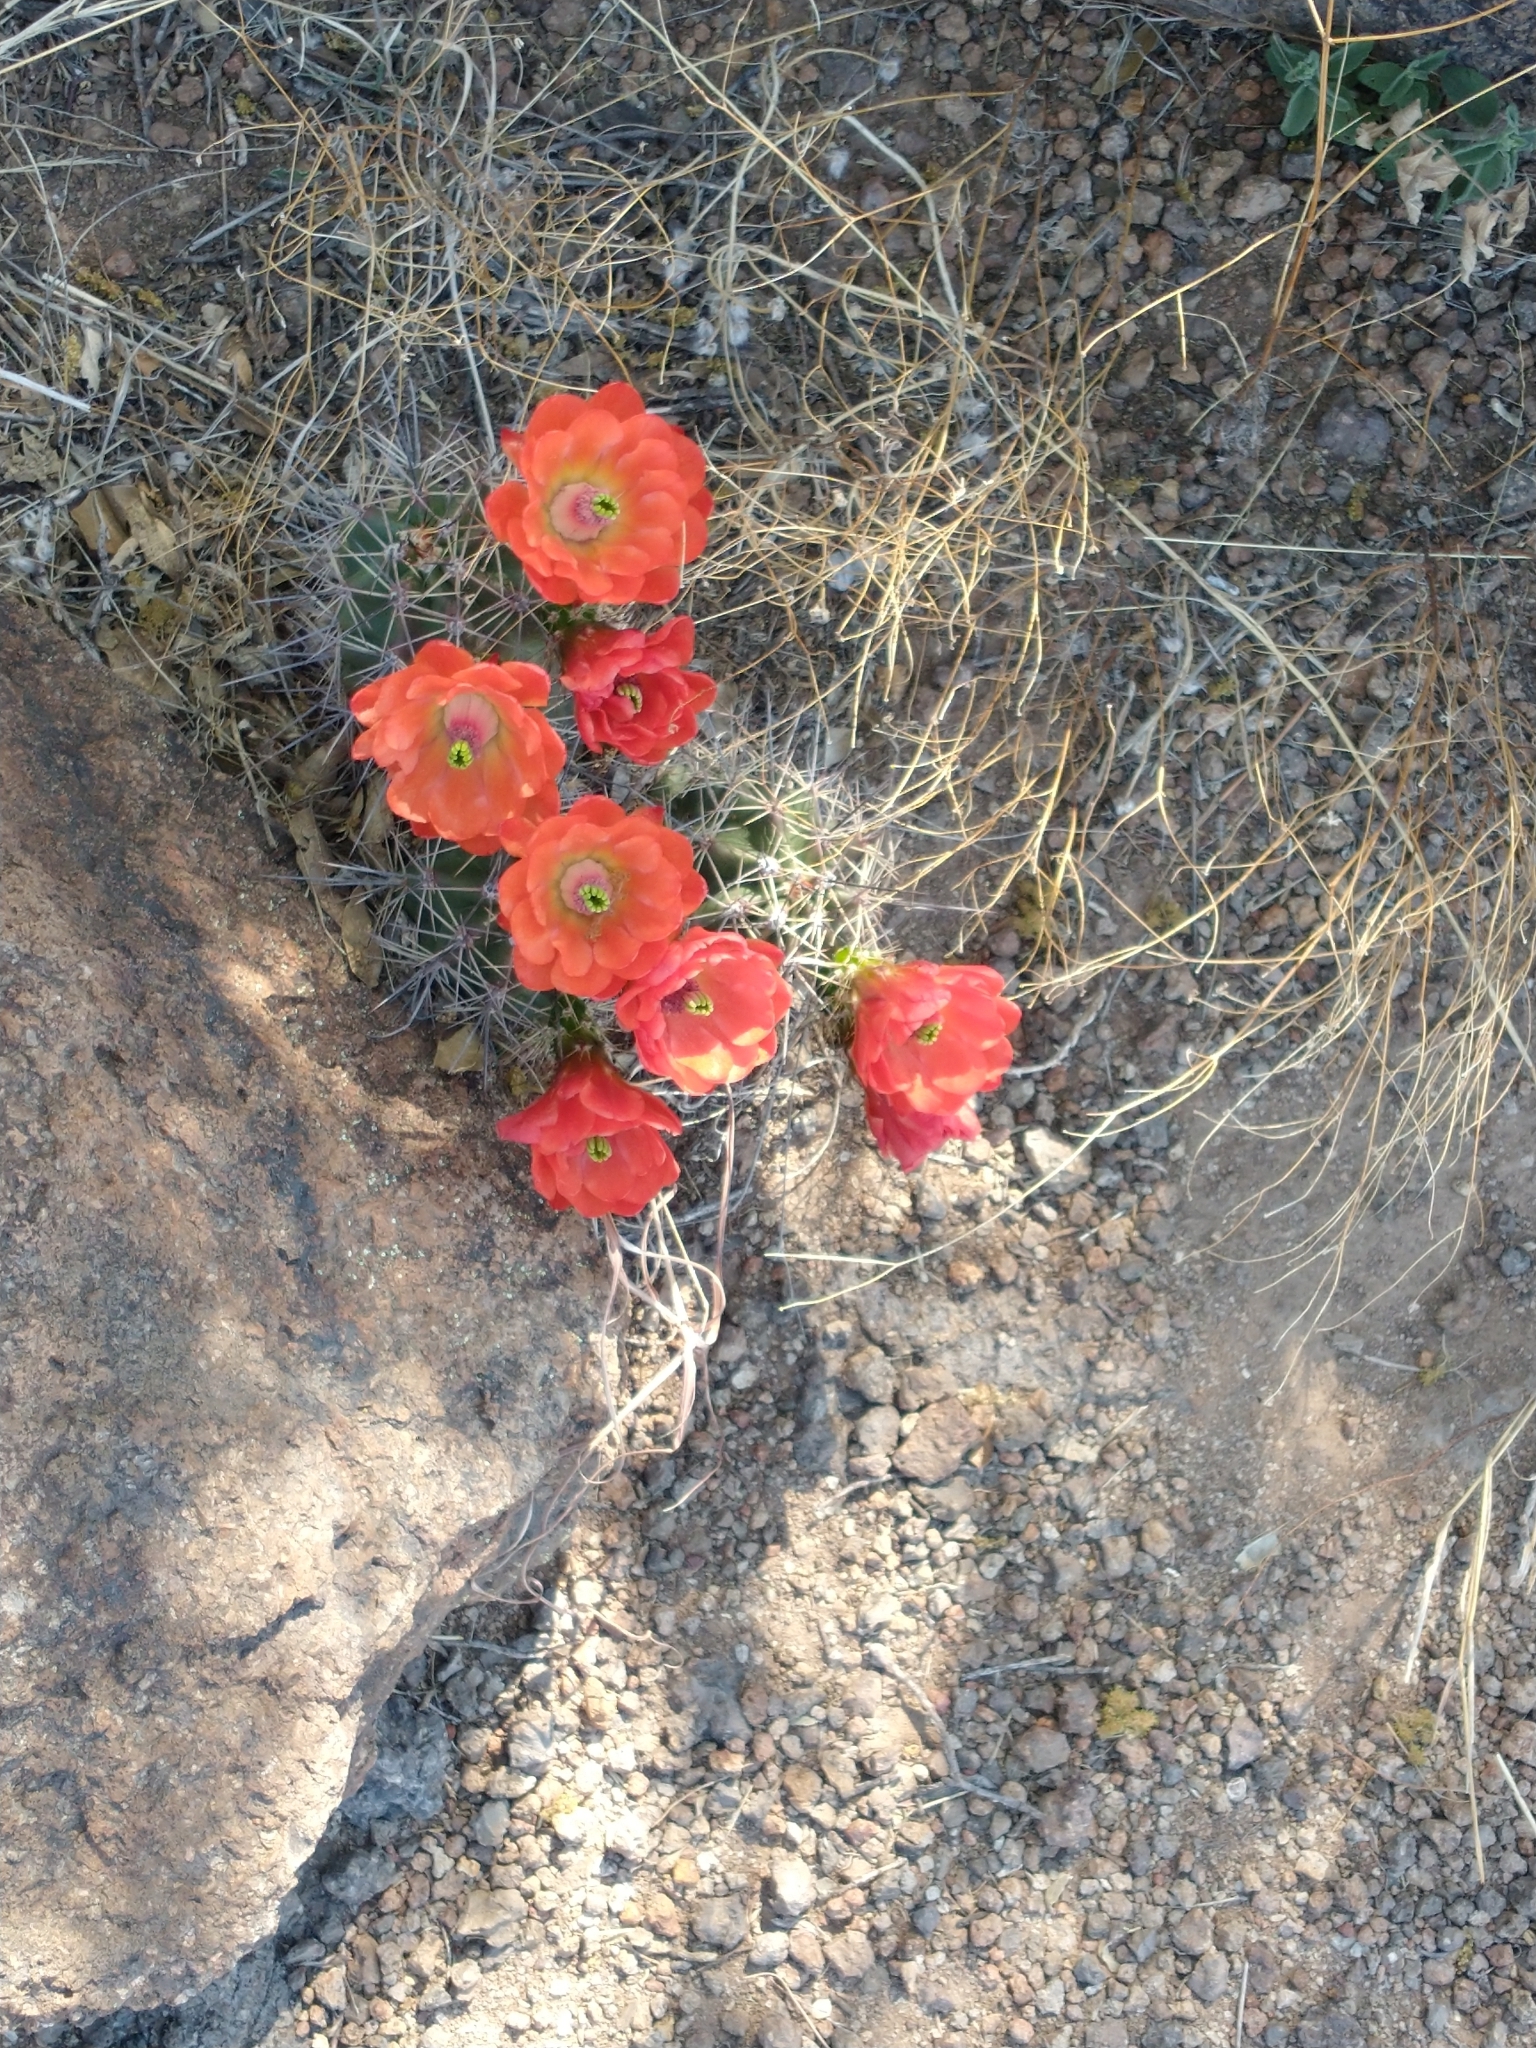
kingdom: Plantae
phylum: Tracheophyta
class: Magnoliopsida
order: Caryophyllales
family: Cactaceae
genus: Echinocereus
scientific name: Echinocereus coccineus
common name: Scarlet hedgehog cactus
